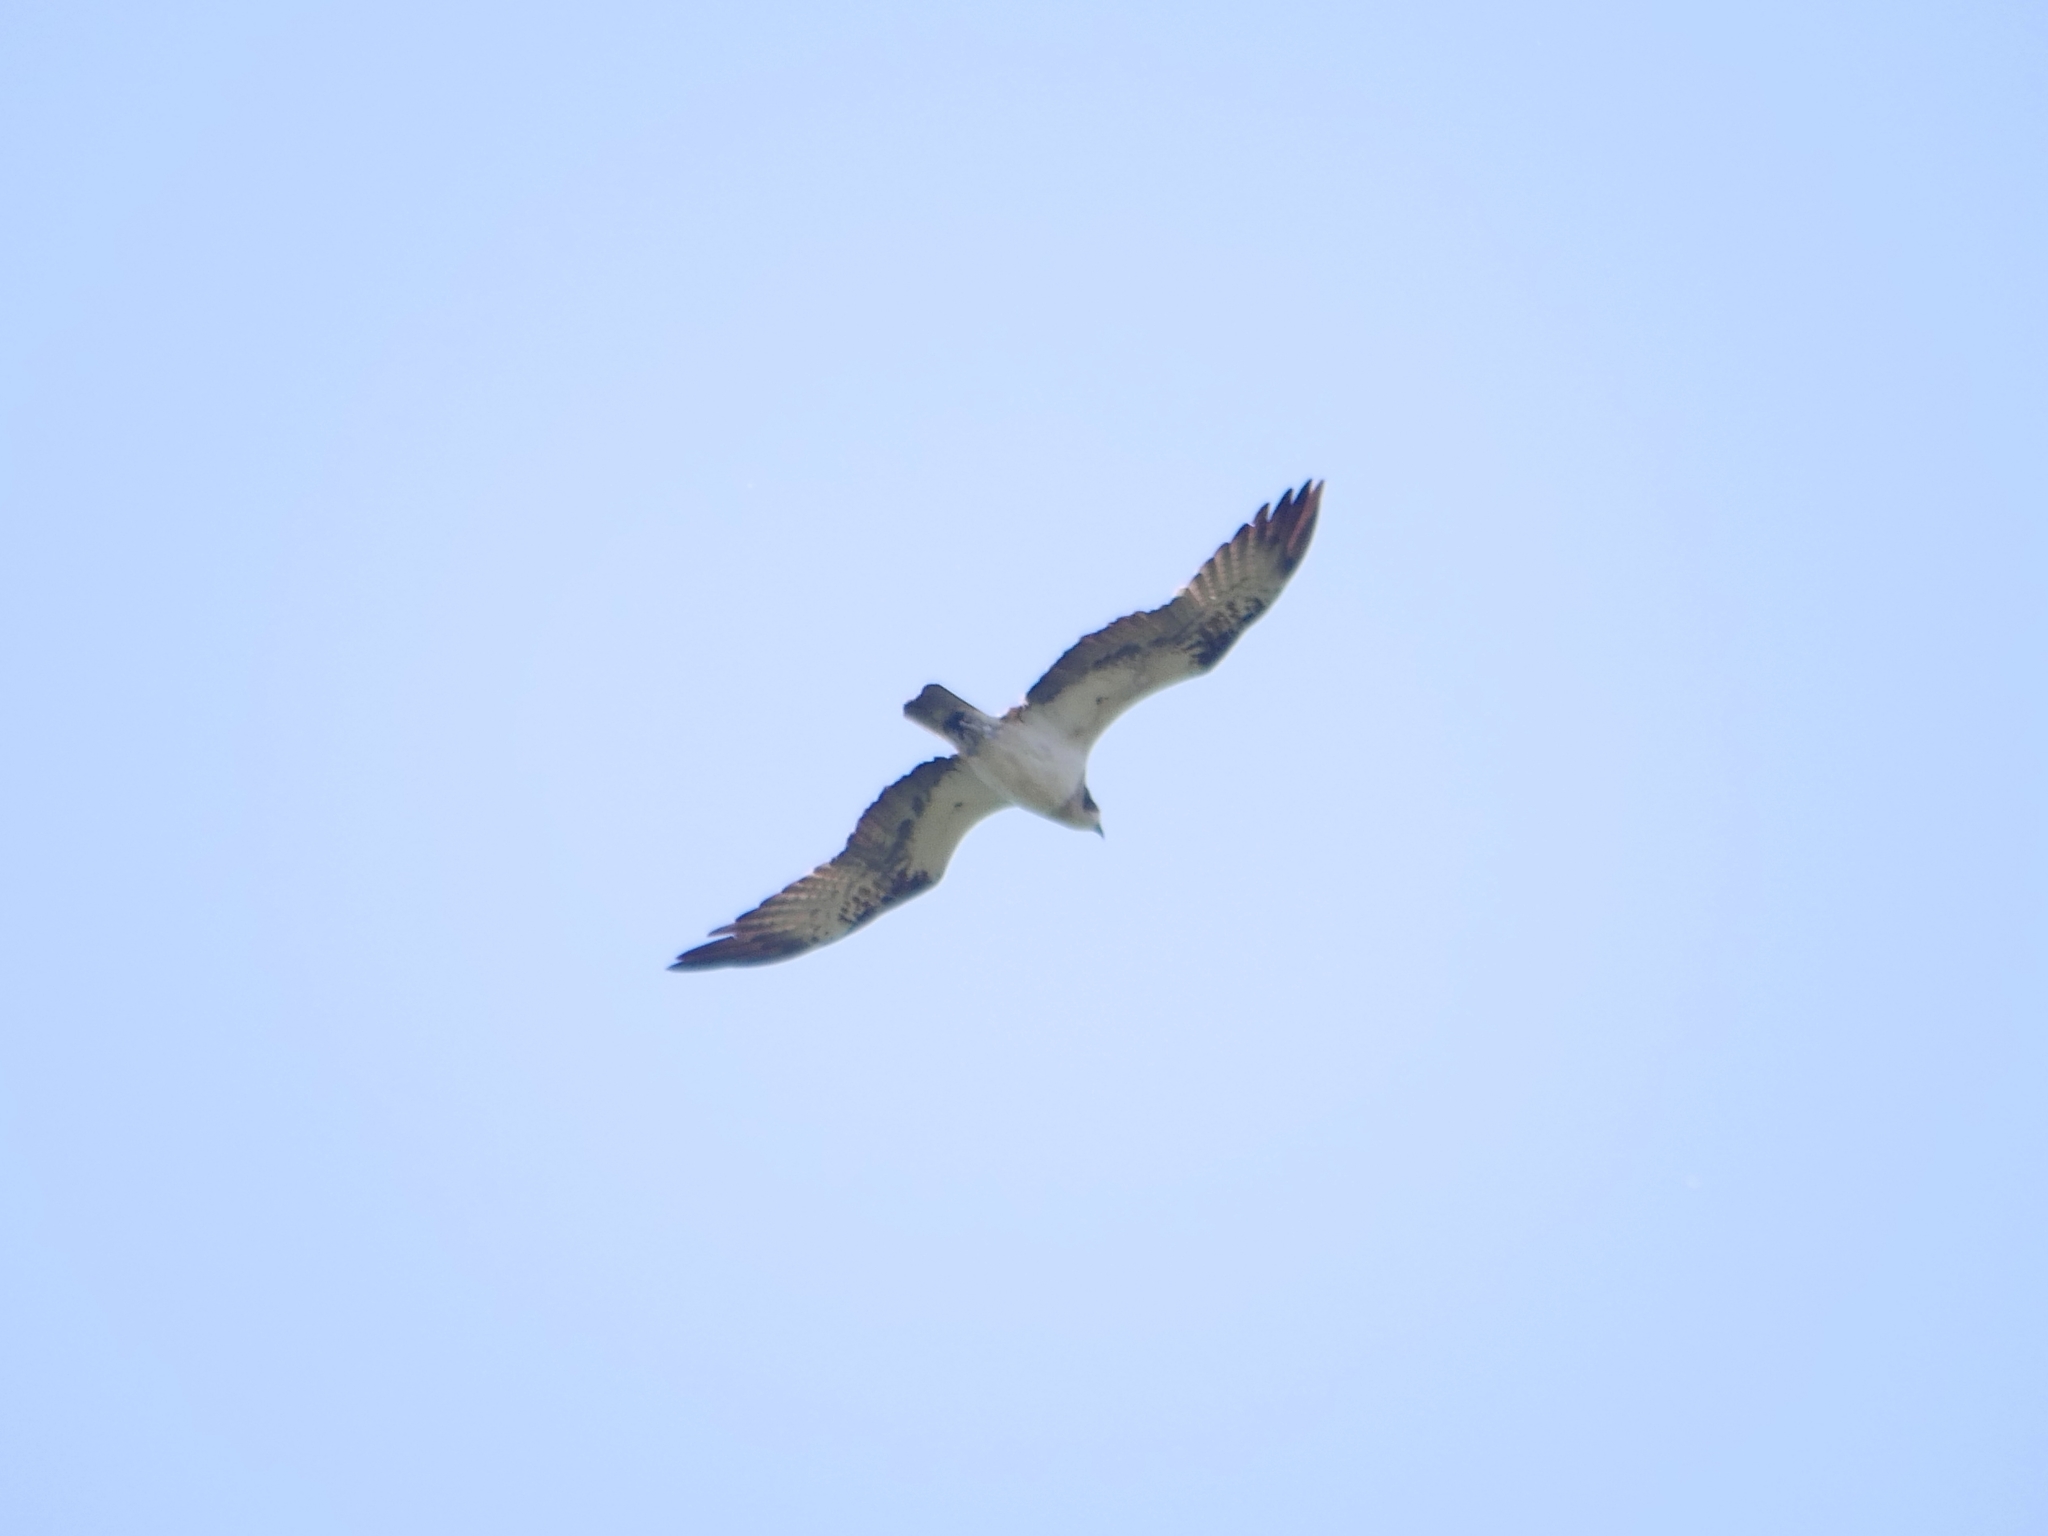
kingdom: Animalia
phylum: Chordata
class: Aves
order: Accipitriformes
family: Pandionidae
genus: Pandion
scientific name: Pandion haliaetus
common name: Osprey
